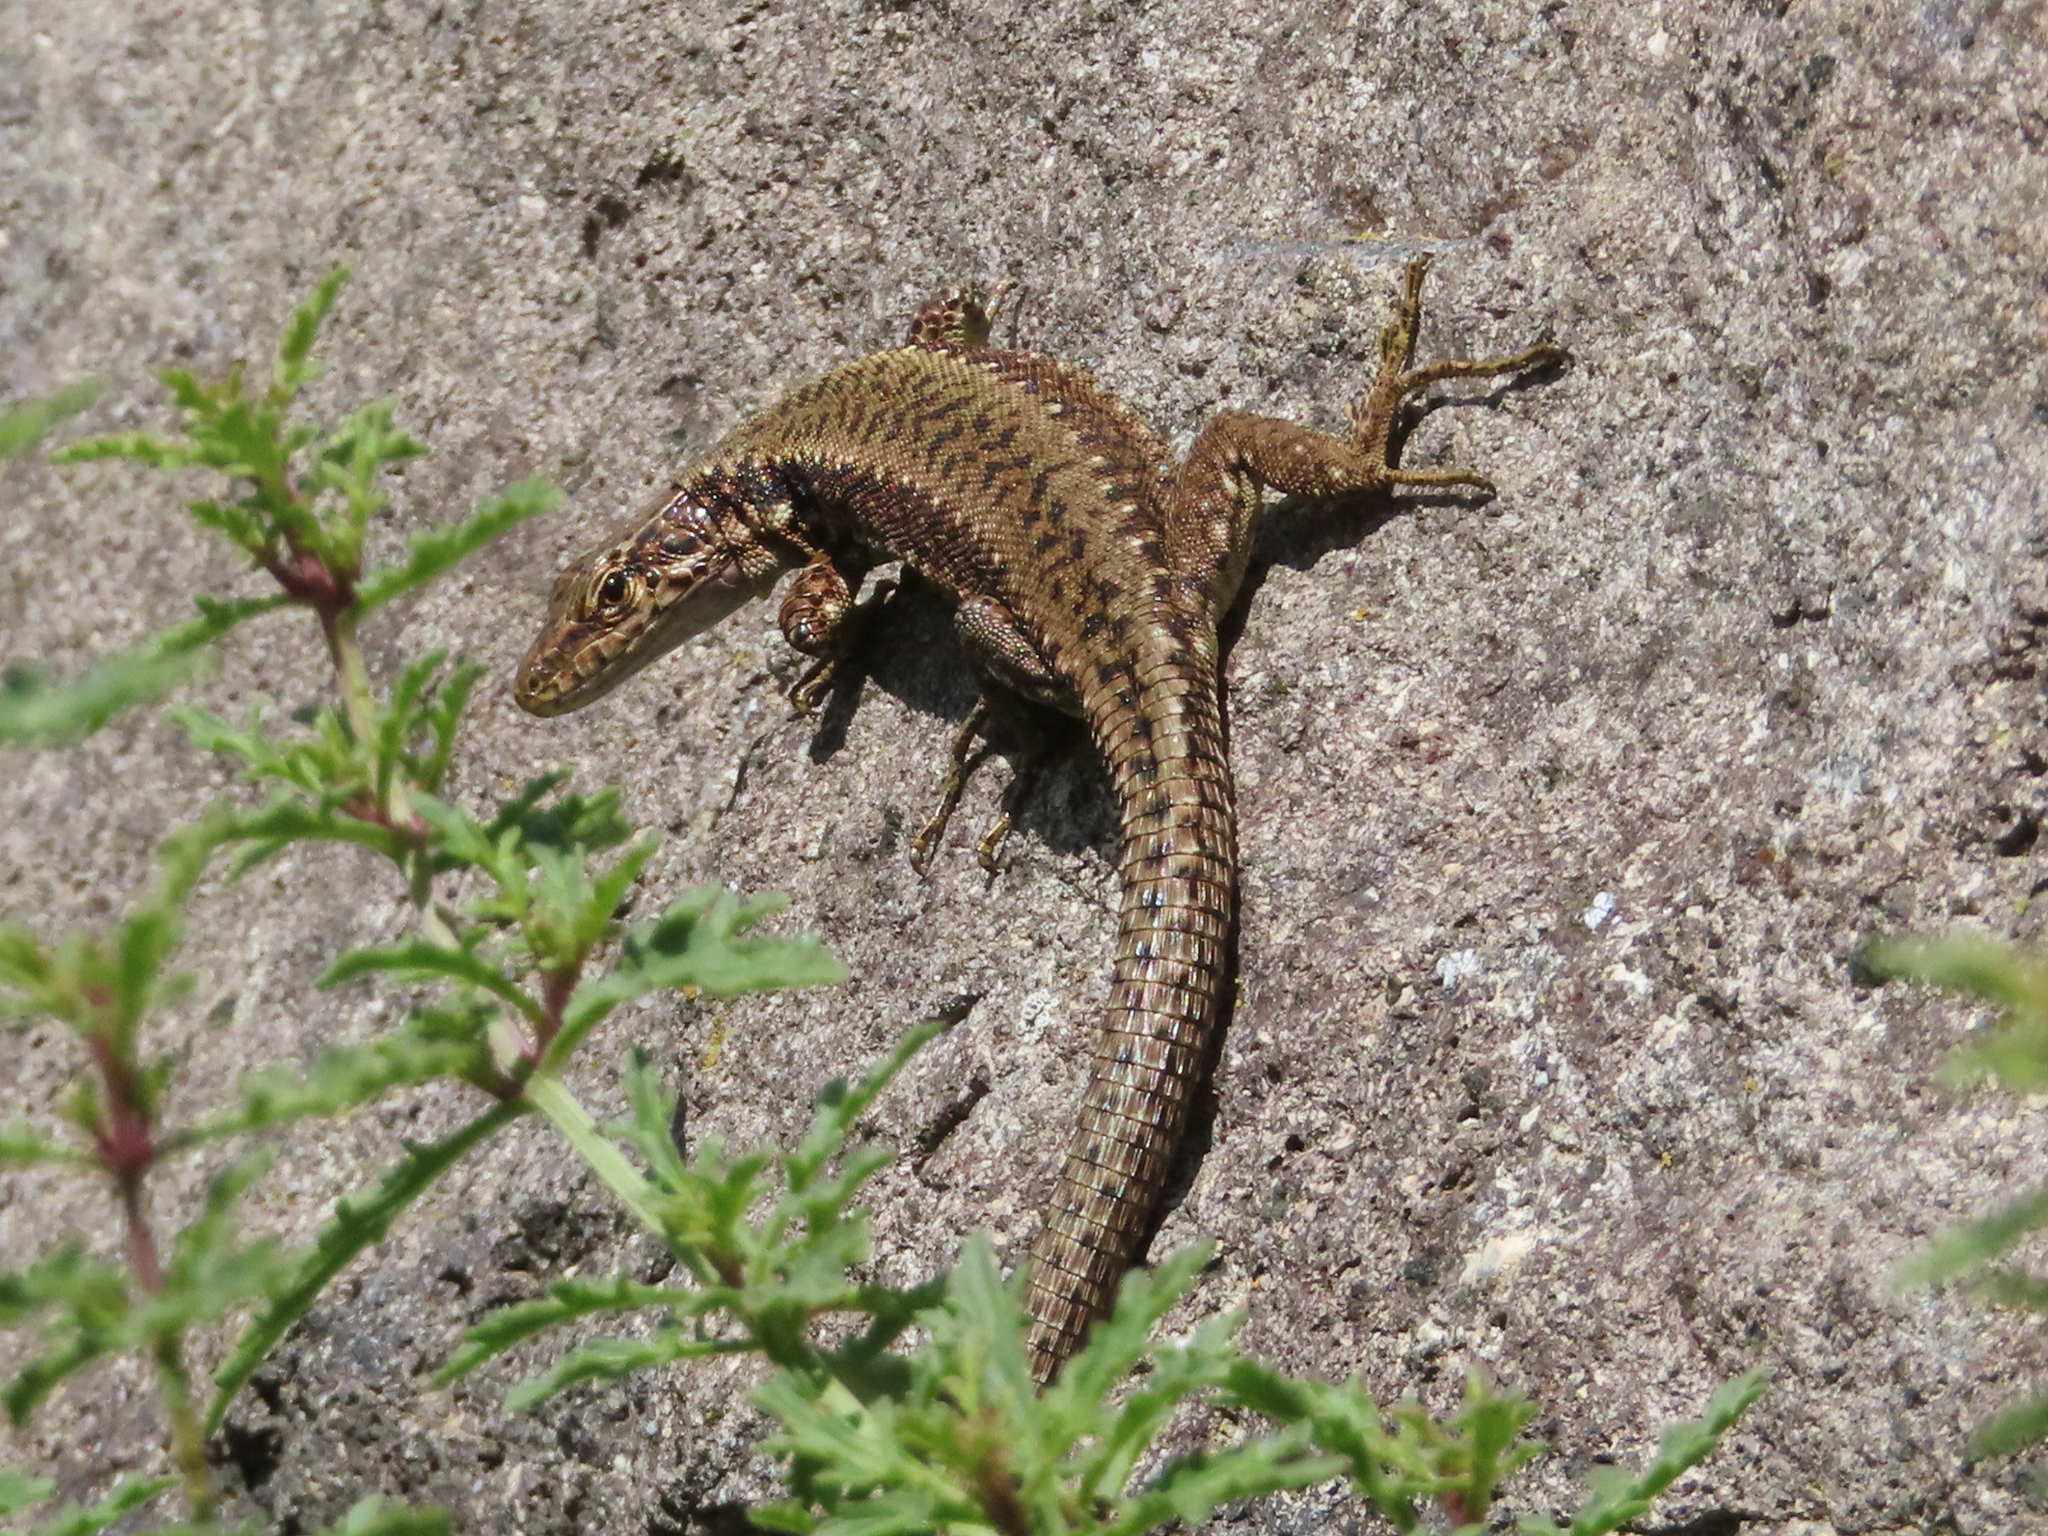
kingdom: Animalia
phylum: Chordata
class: Squamata
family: Lacertidae
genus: Darevskia
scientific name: Darevskia armeniaca
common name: Armenian lizard
